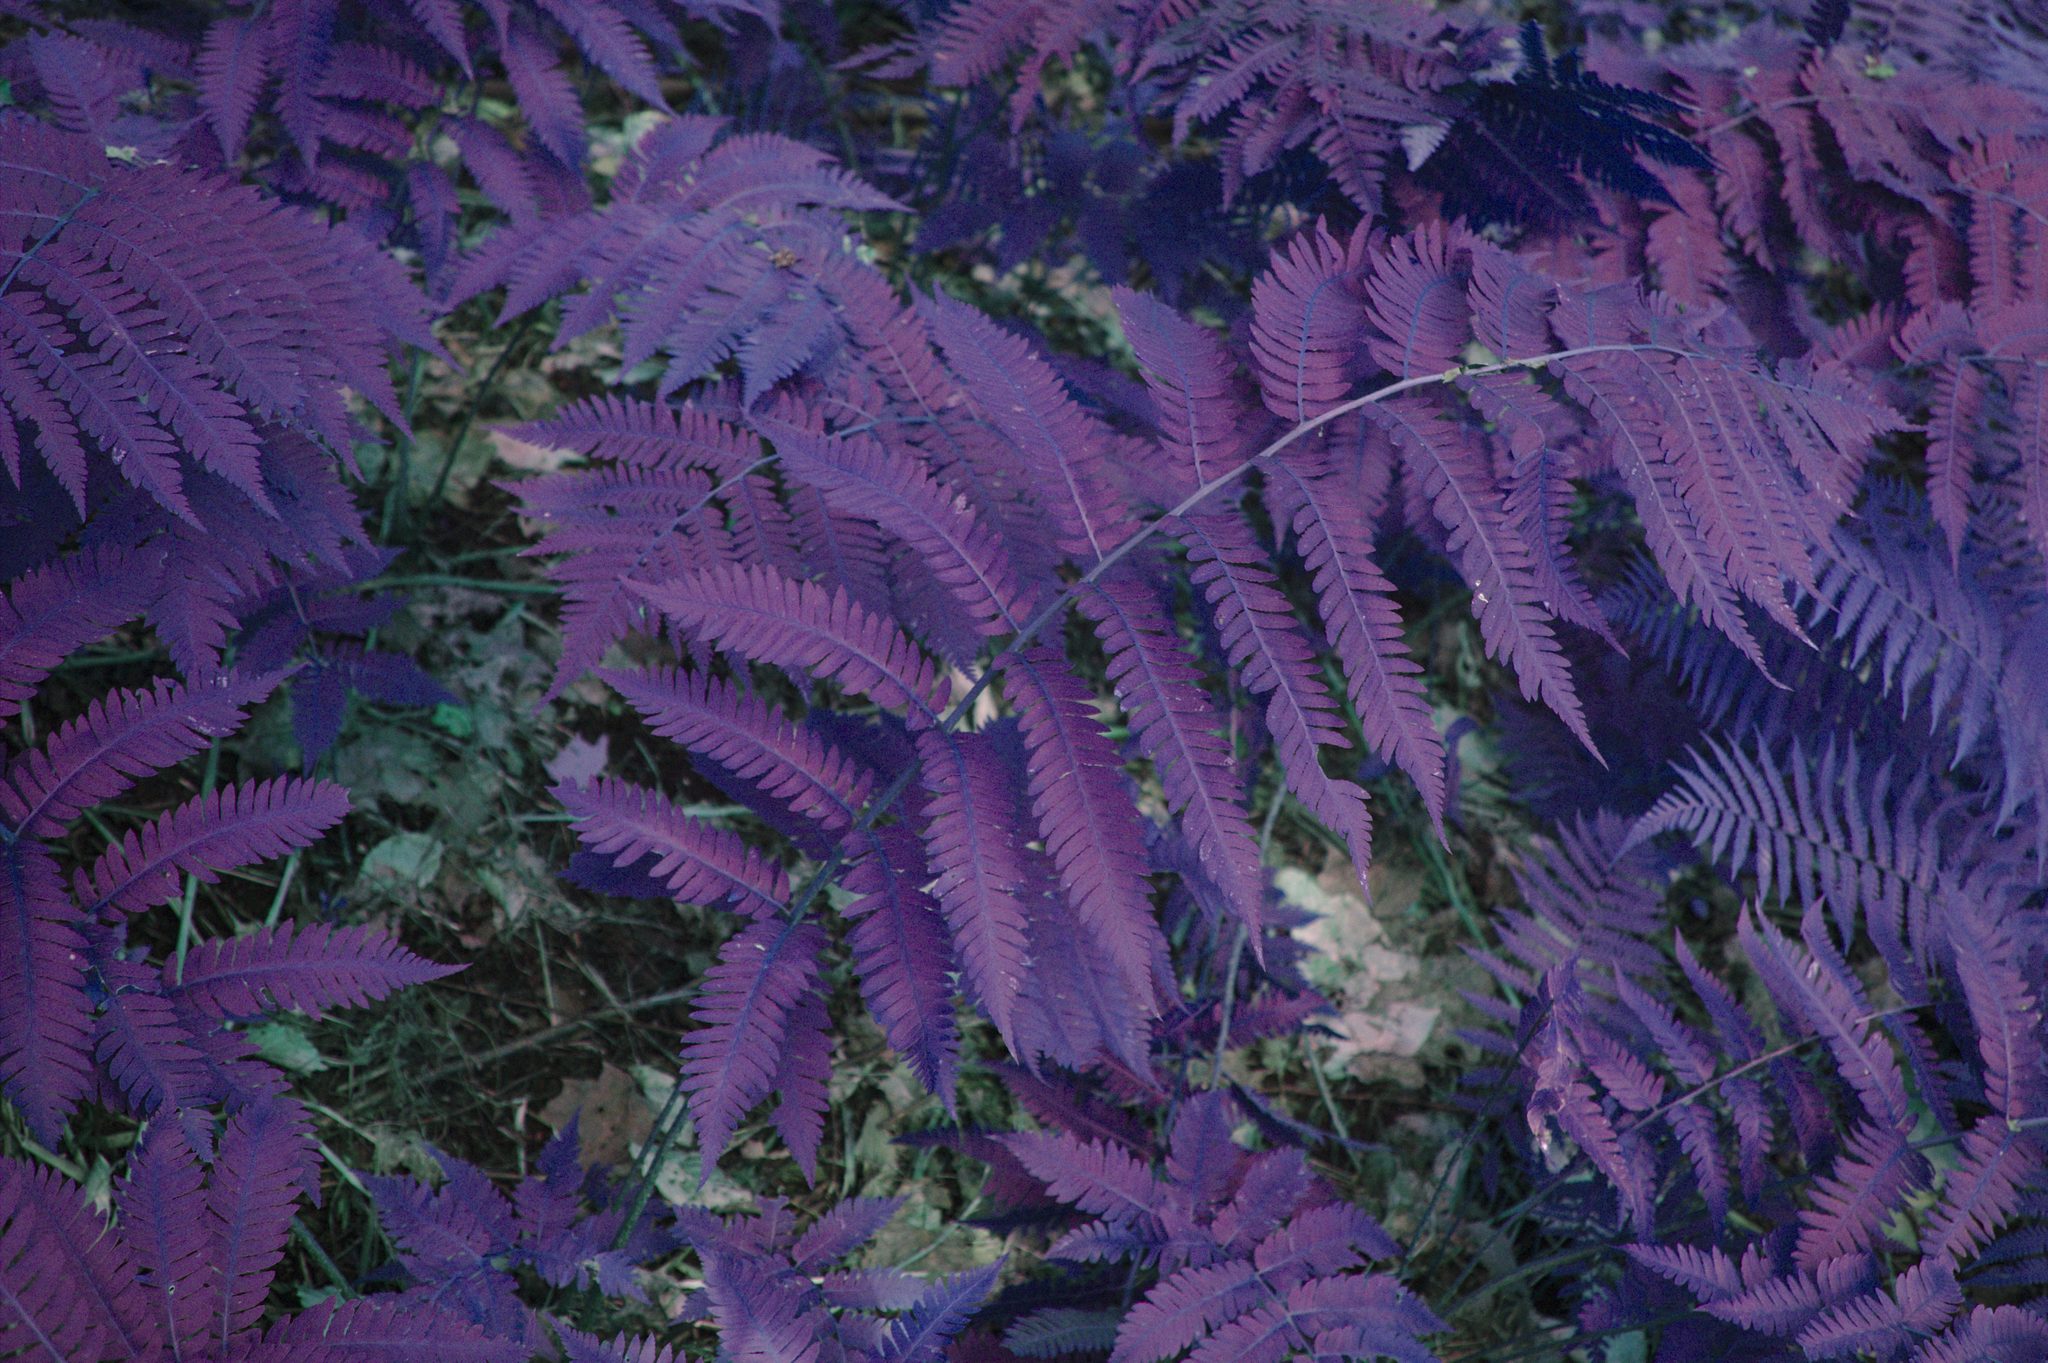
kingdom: Plantae
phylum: Tracheophyta
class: Polypodiopsida
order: Polypodiales
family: Dryopteridaceae
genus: Dryopteris
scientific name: Dryopteris goldieana
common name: Goldie's fern
